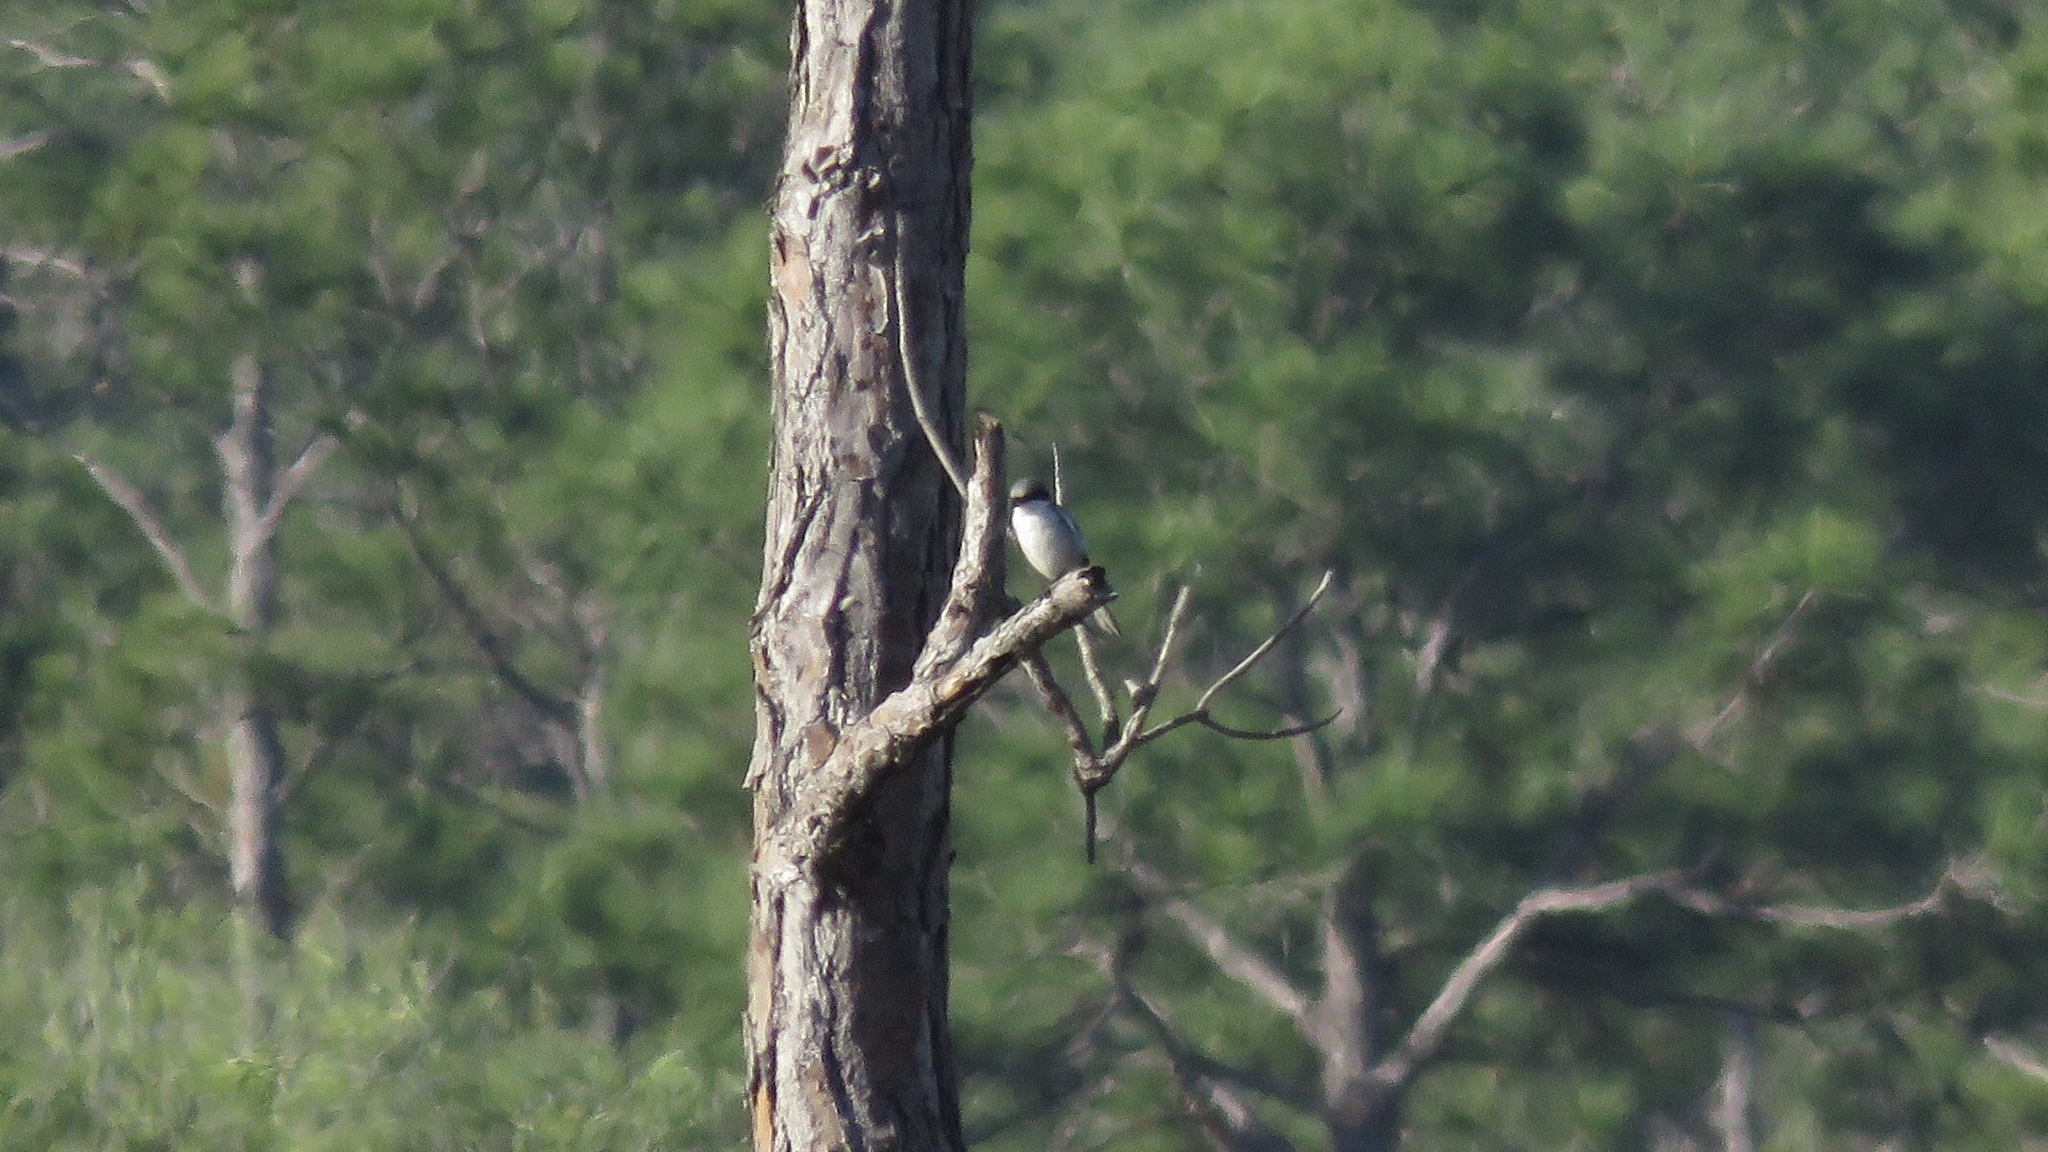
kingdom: Animalia
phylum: Chordata
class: Aves
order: Passeriformes
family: Laniidae
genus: Lanius
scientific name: Lanius ludovicianus
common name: Loggerhead shrike
